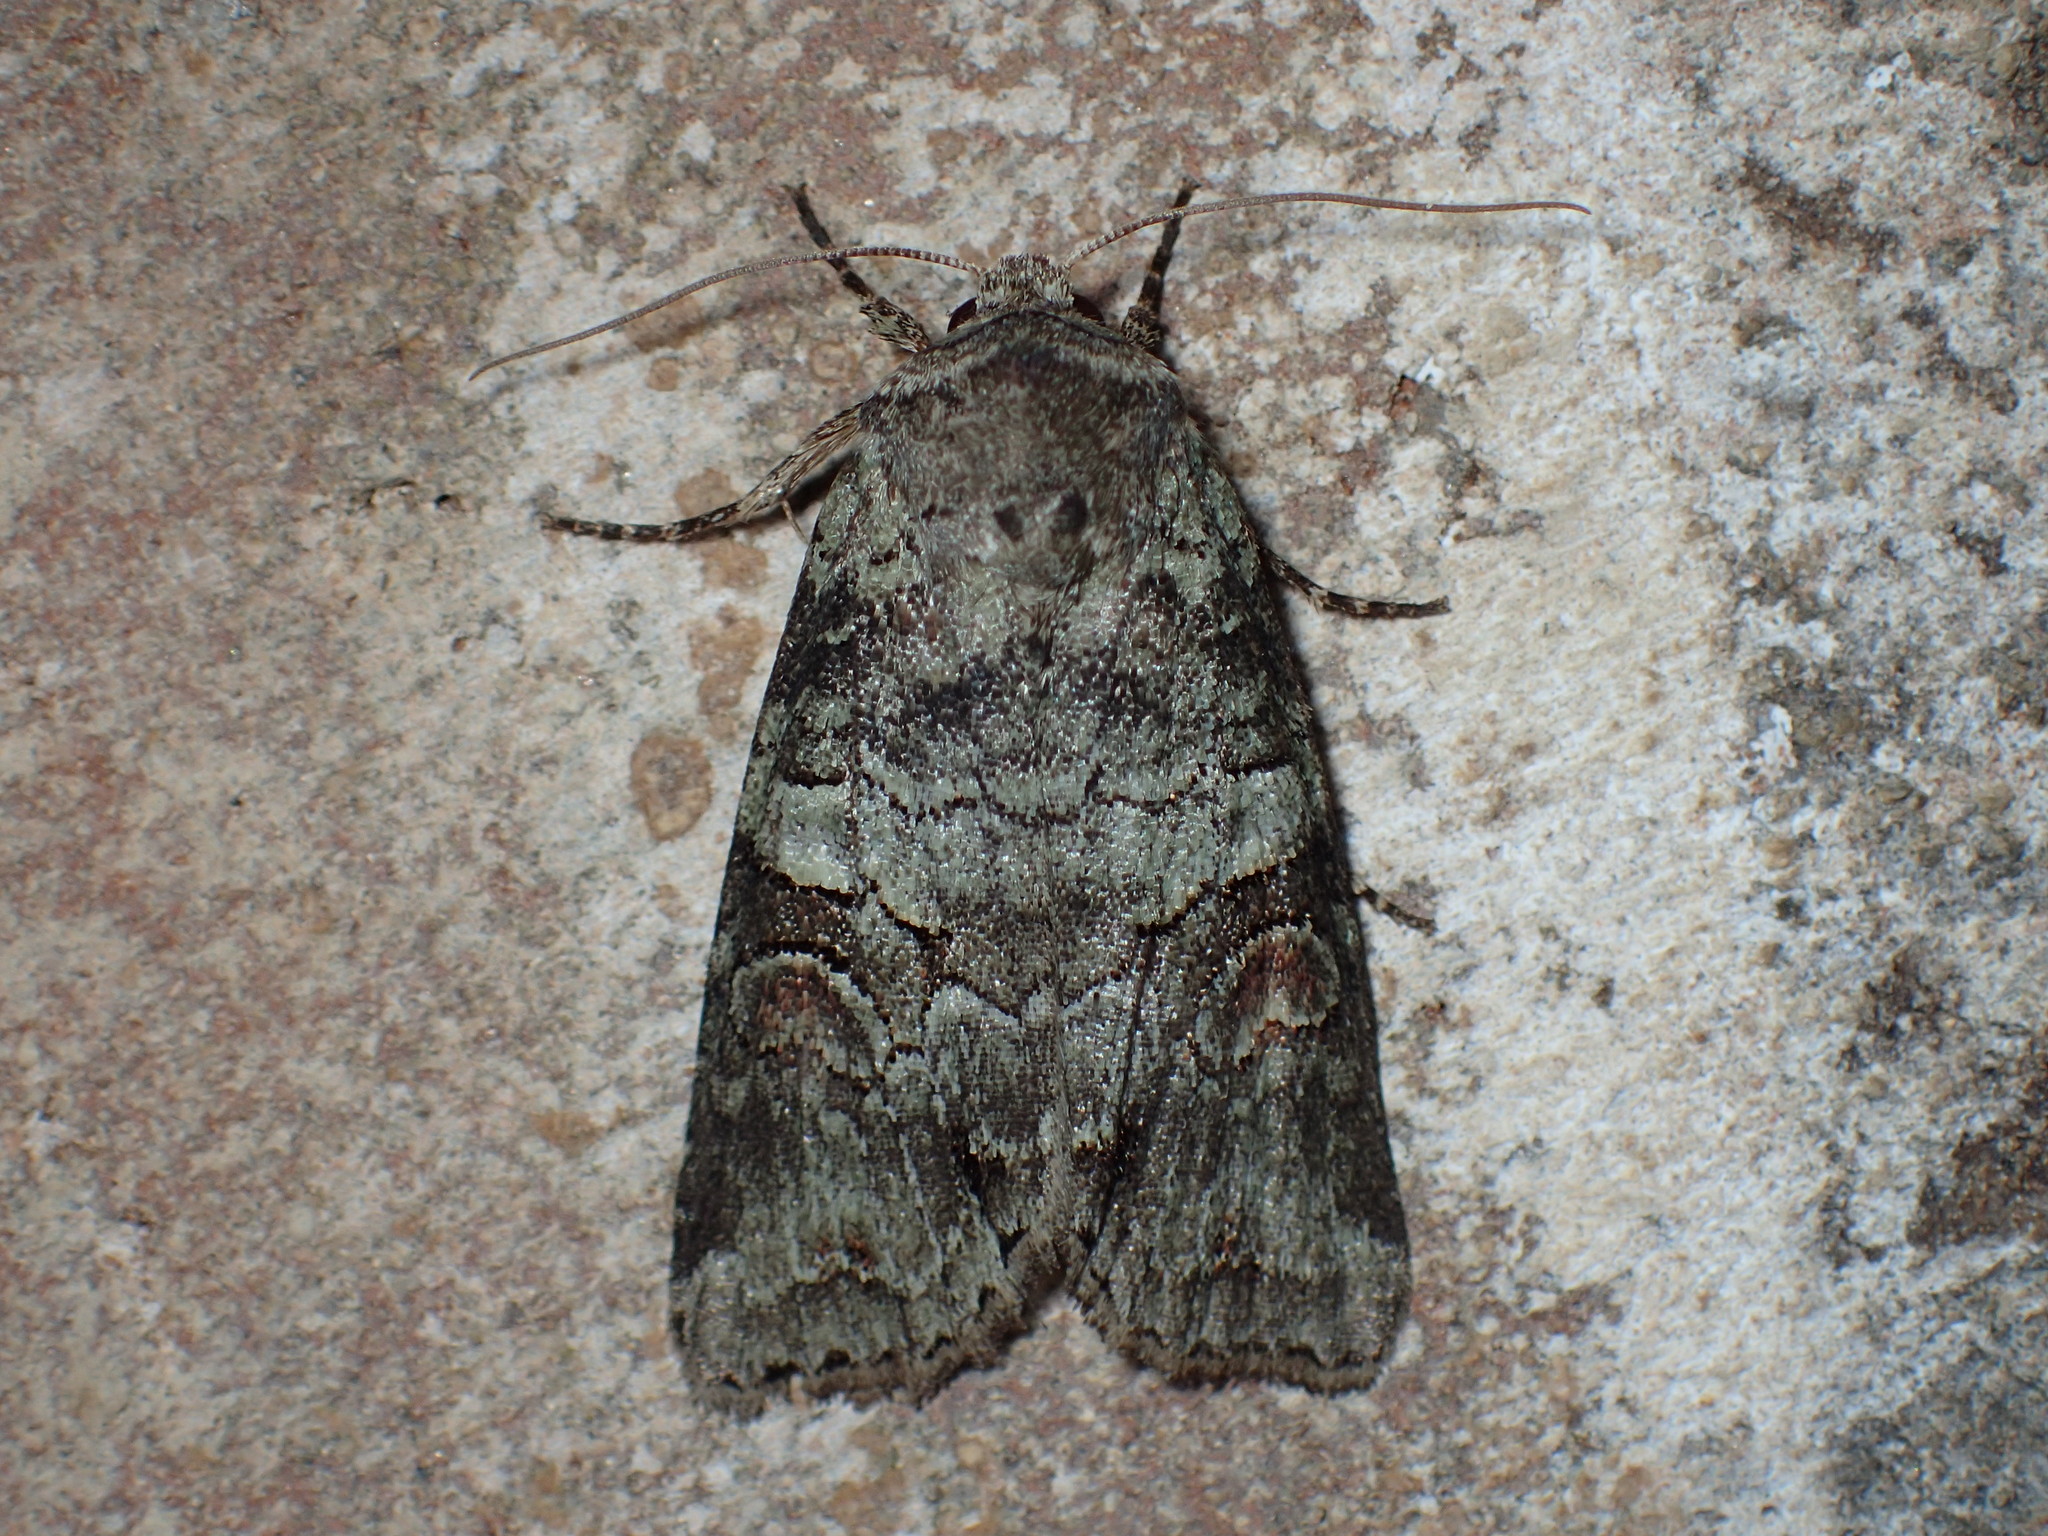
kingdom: Animalia
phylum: Arthropoda
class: Insecta
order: Lepidoptera
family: Noctuidae
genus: Egira
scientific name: Egira alternans
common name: Alternate woodling
